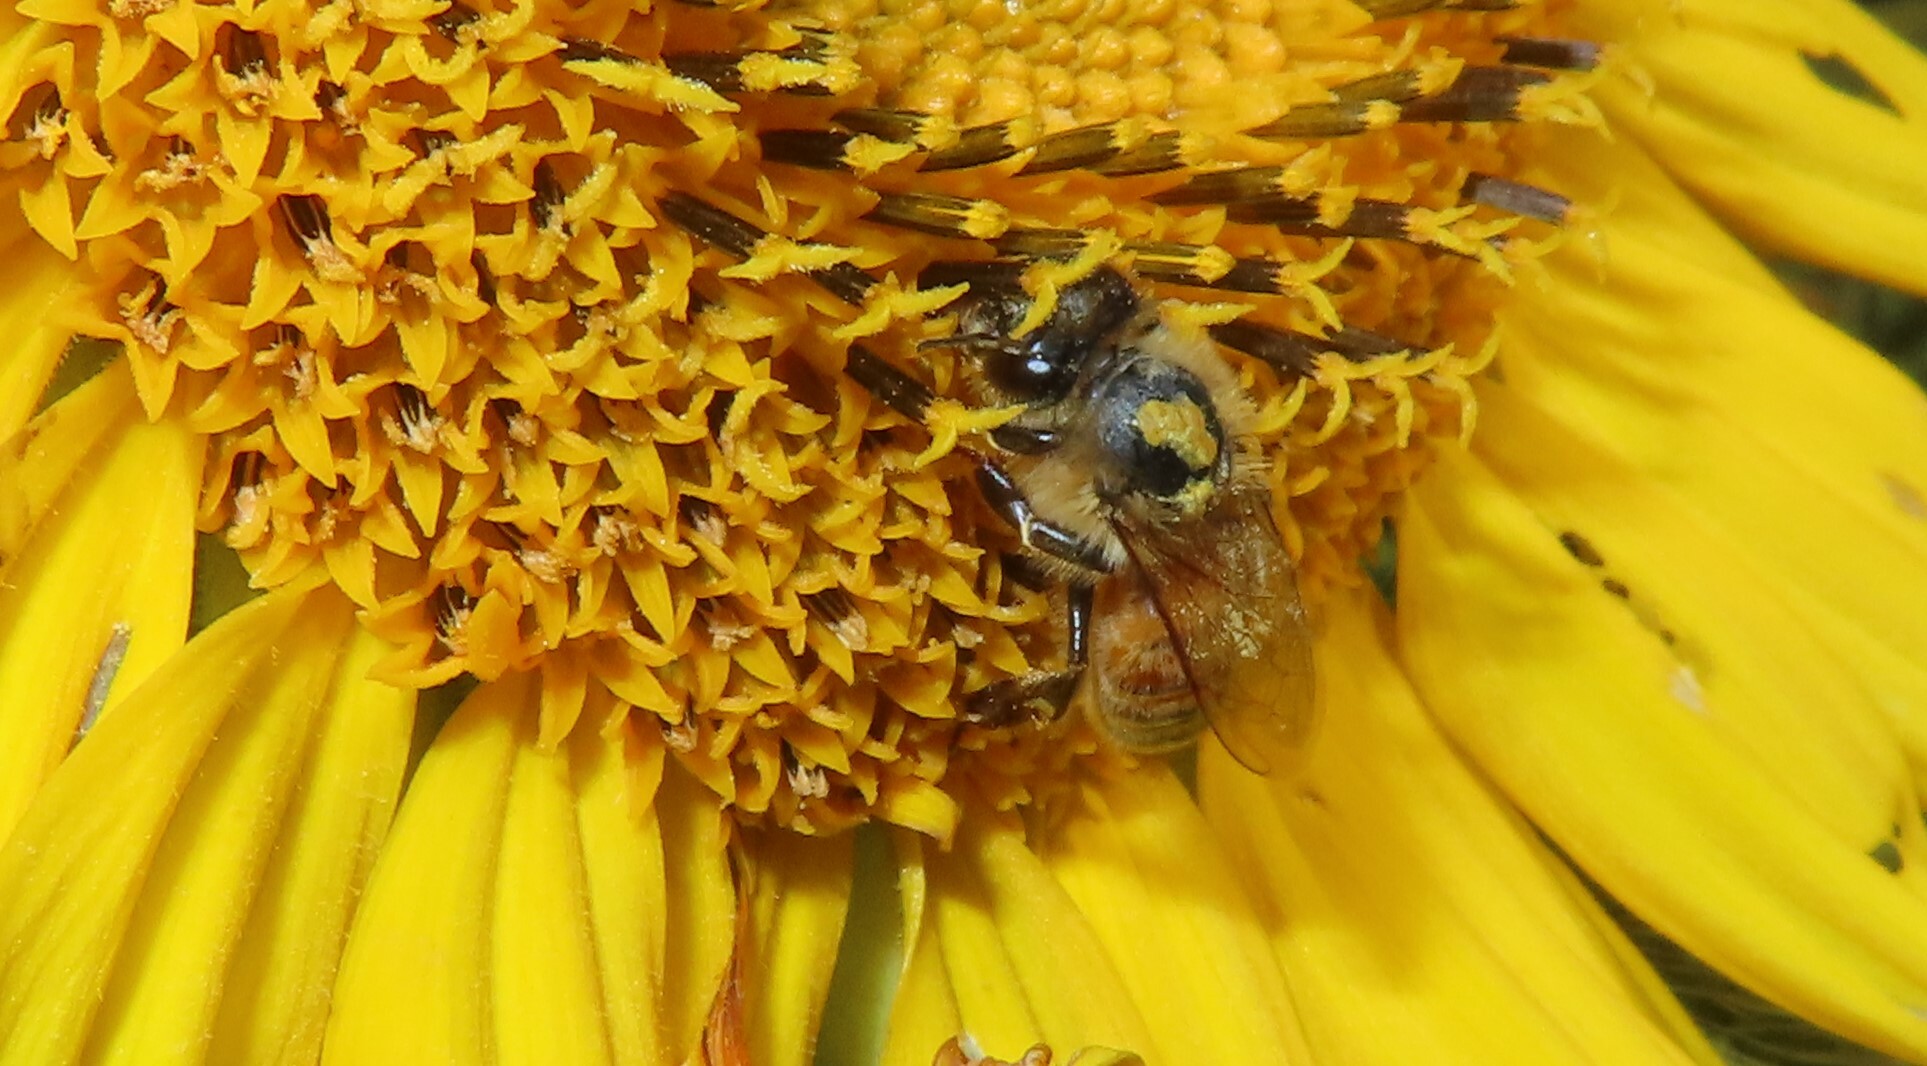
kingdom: Animalia
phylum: Arthropoda
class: Insecta
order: Hymenoptera
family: Apidae
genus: Apis
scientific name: Apis mellifera
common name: Honey bee
